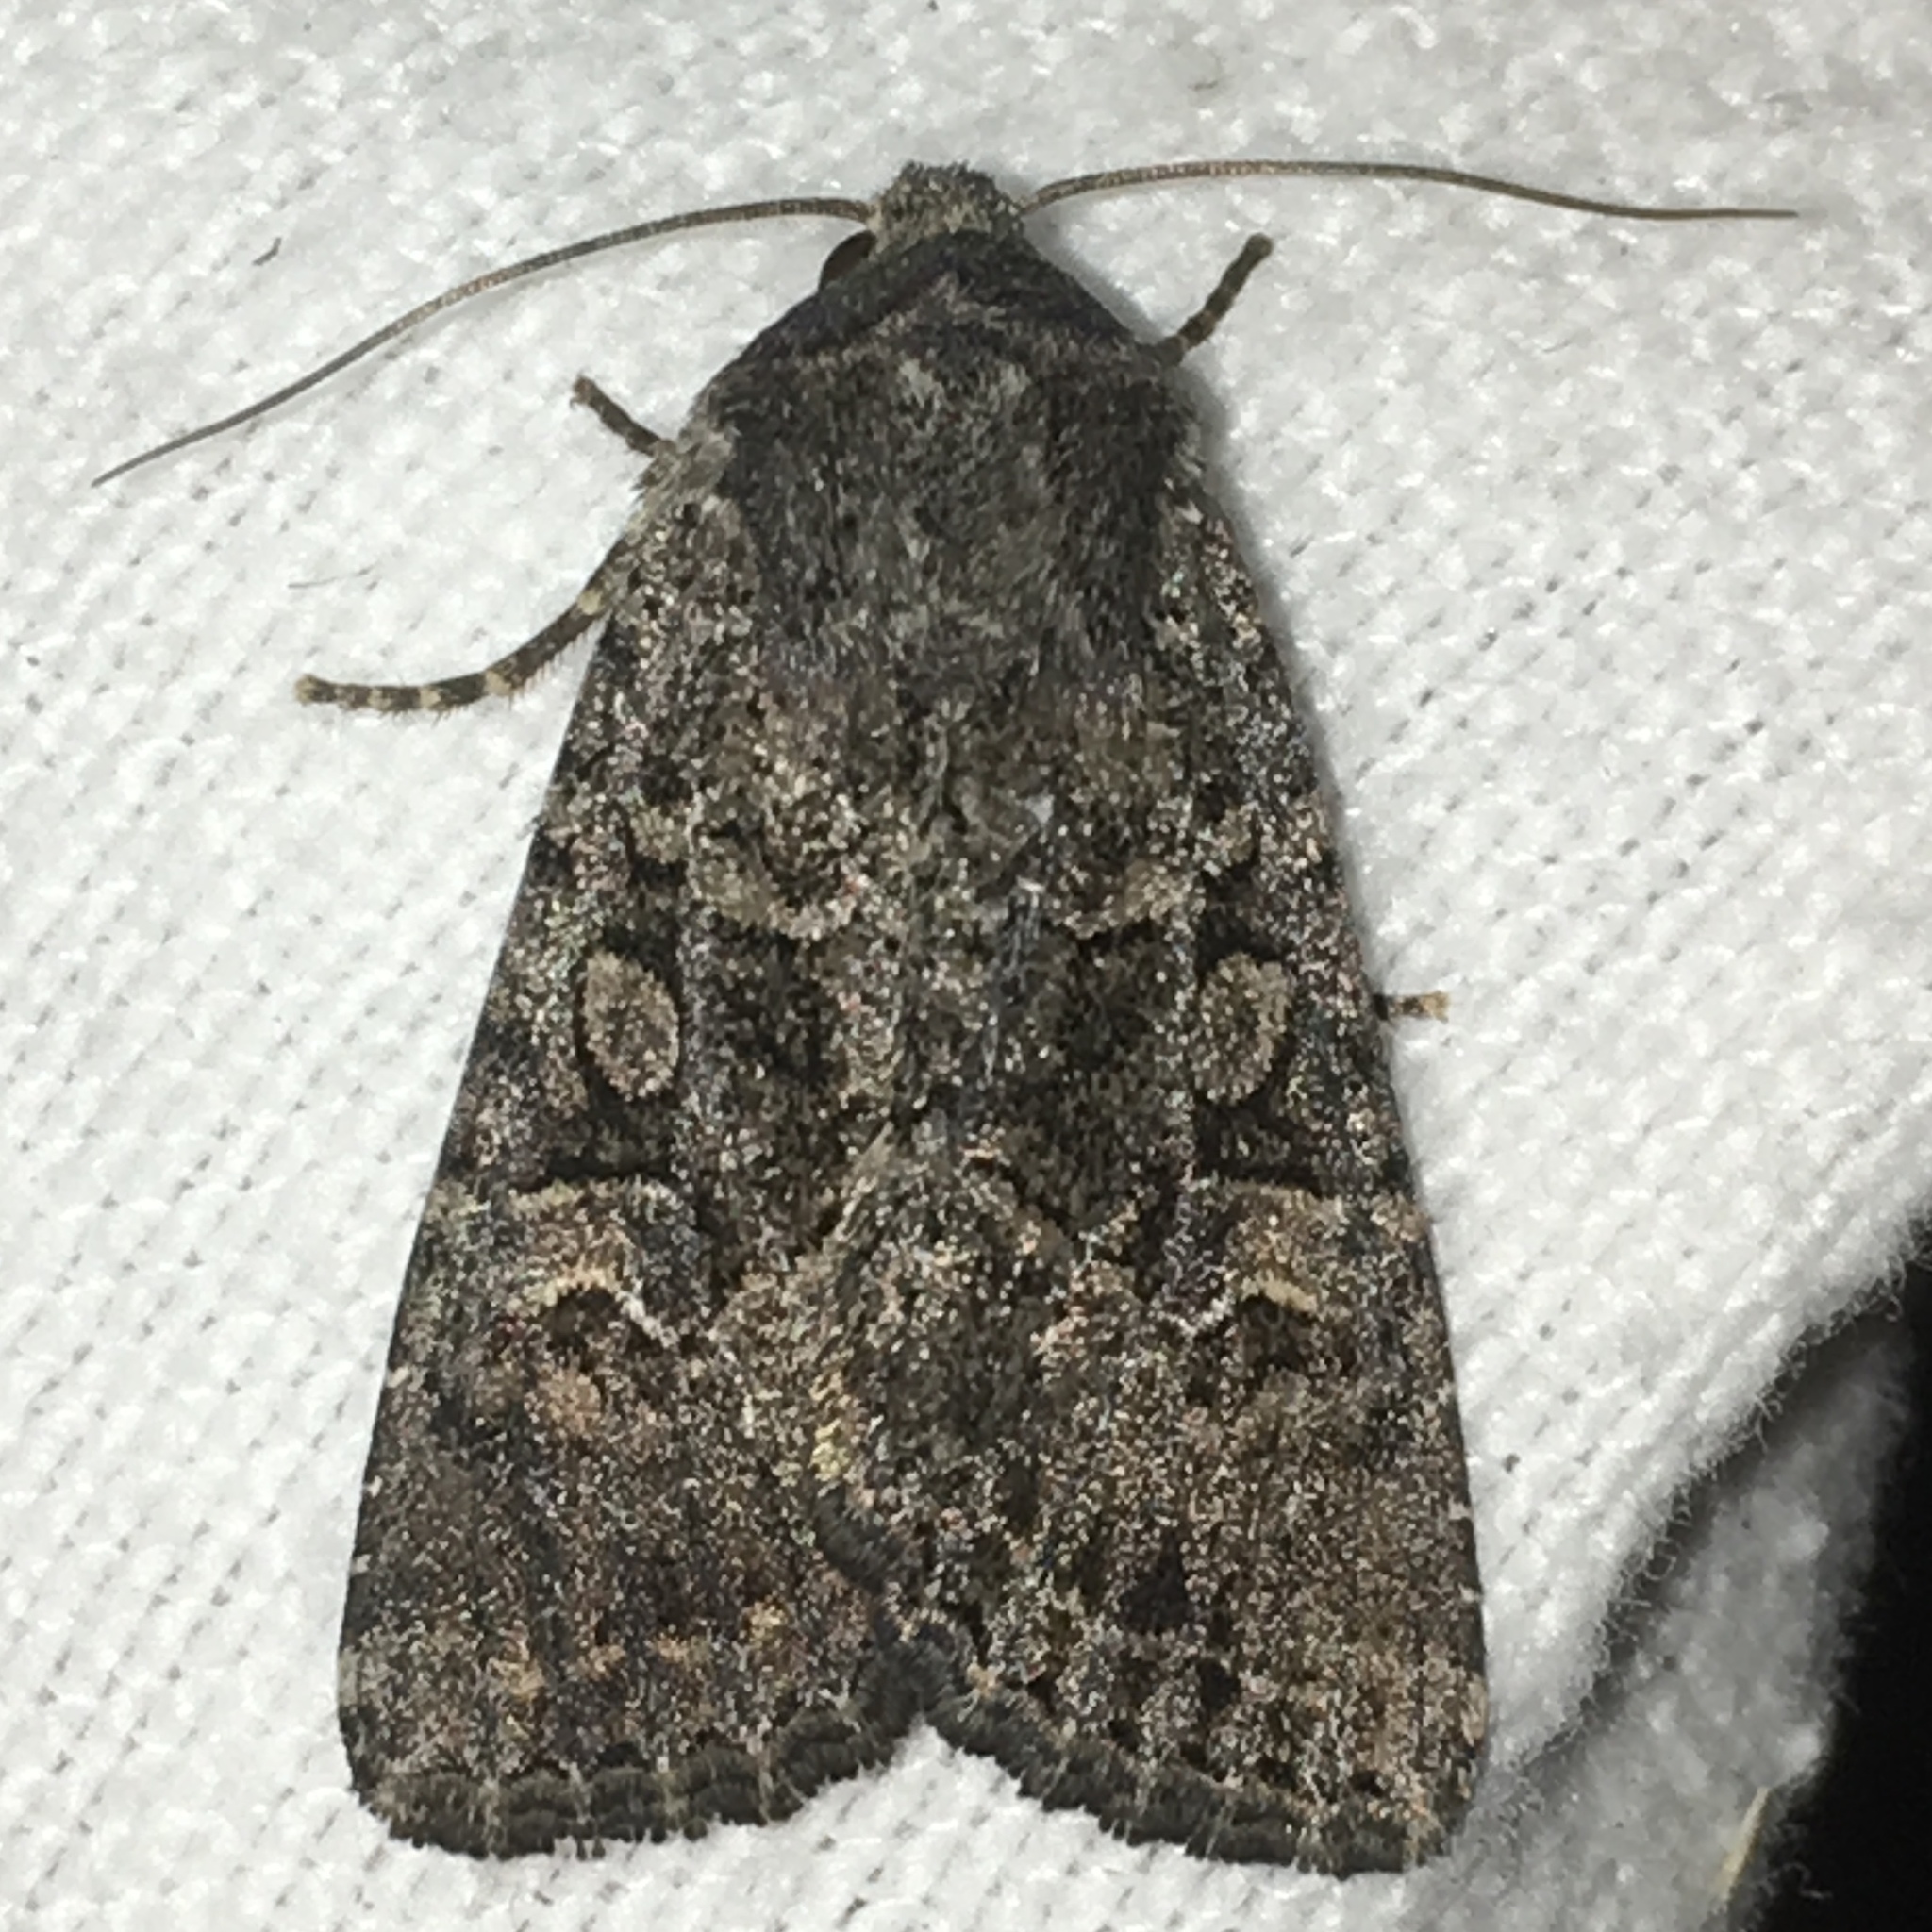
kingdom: Animalia
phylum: Arthropoda
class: Insecta
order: Lepidoptera
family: Noctuidae
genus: Apamea
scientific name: Apamea devastator
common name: Glassy cutworm
